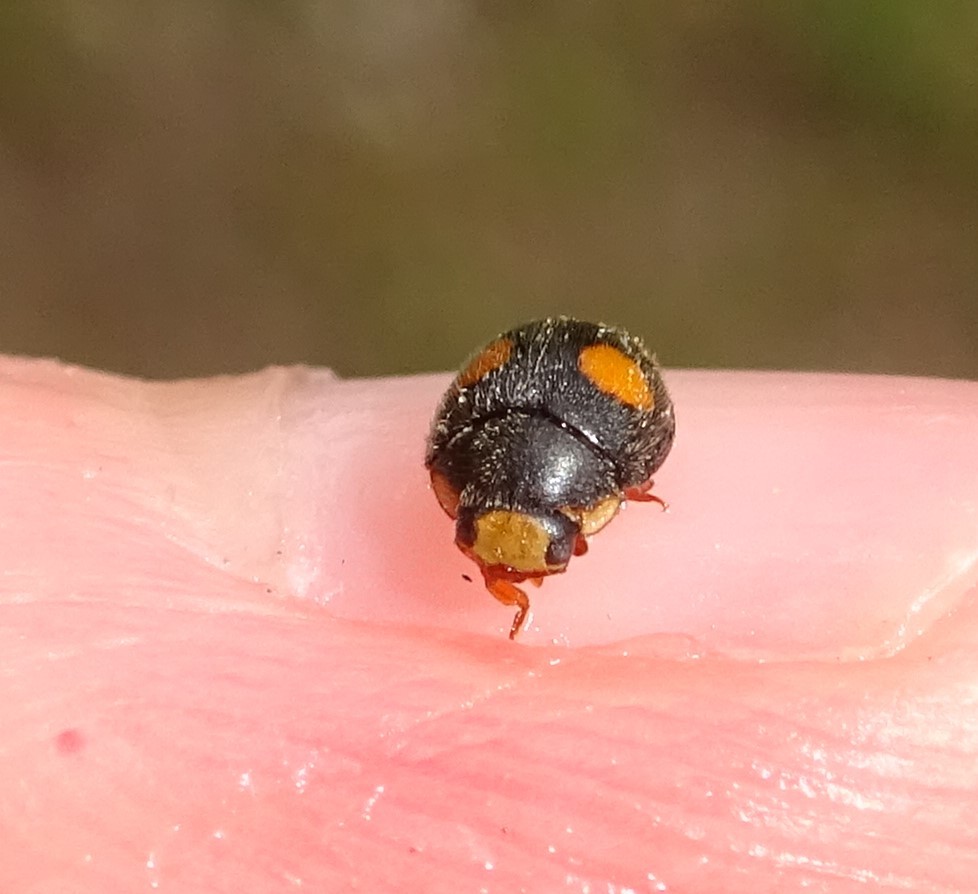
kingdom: Animalia
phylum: Arthropoda
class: Insecta
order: Coleoptera
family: Coccinellidae
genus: Platynaspis
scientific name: Platynaspis luteorubra
